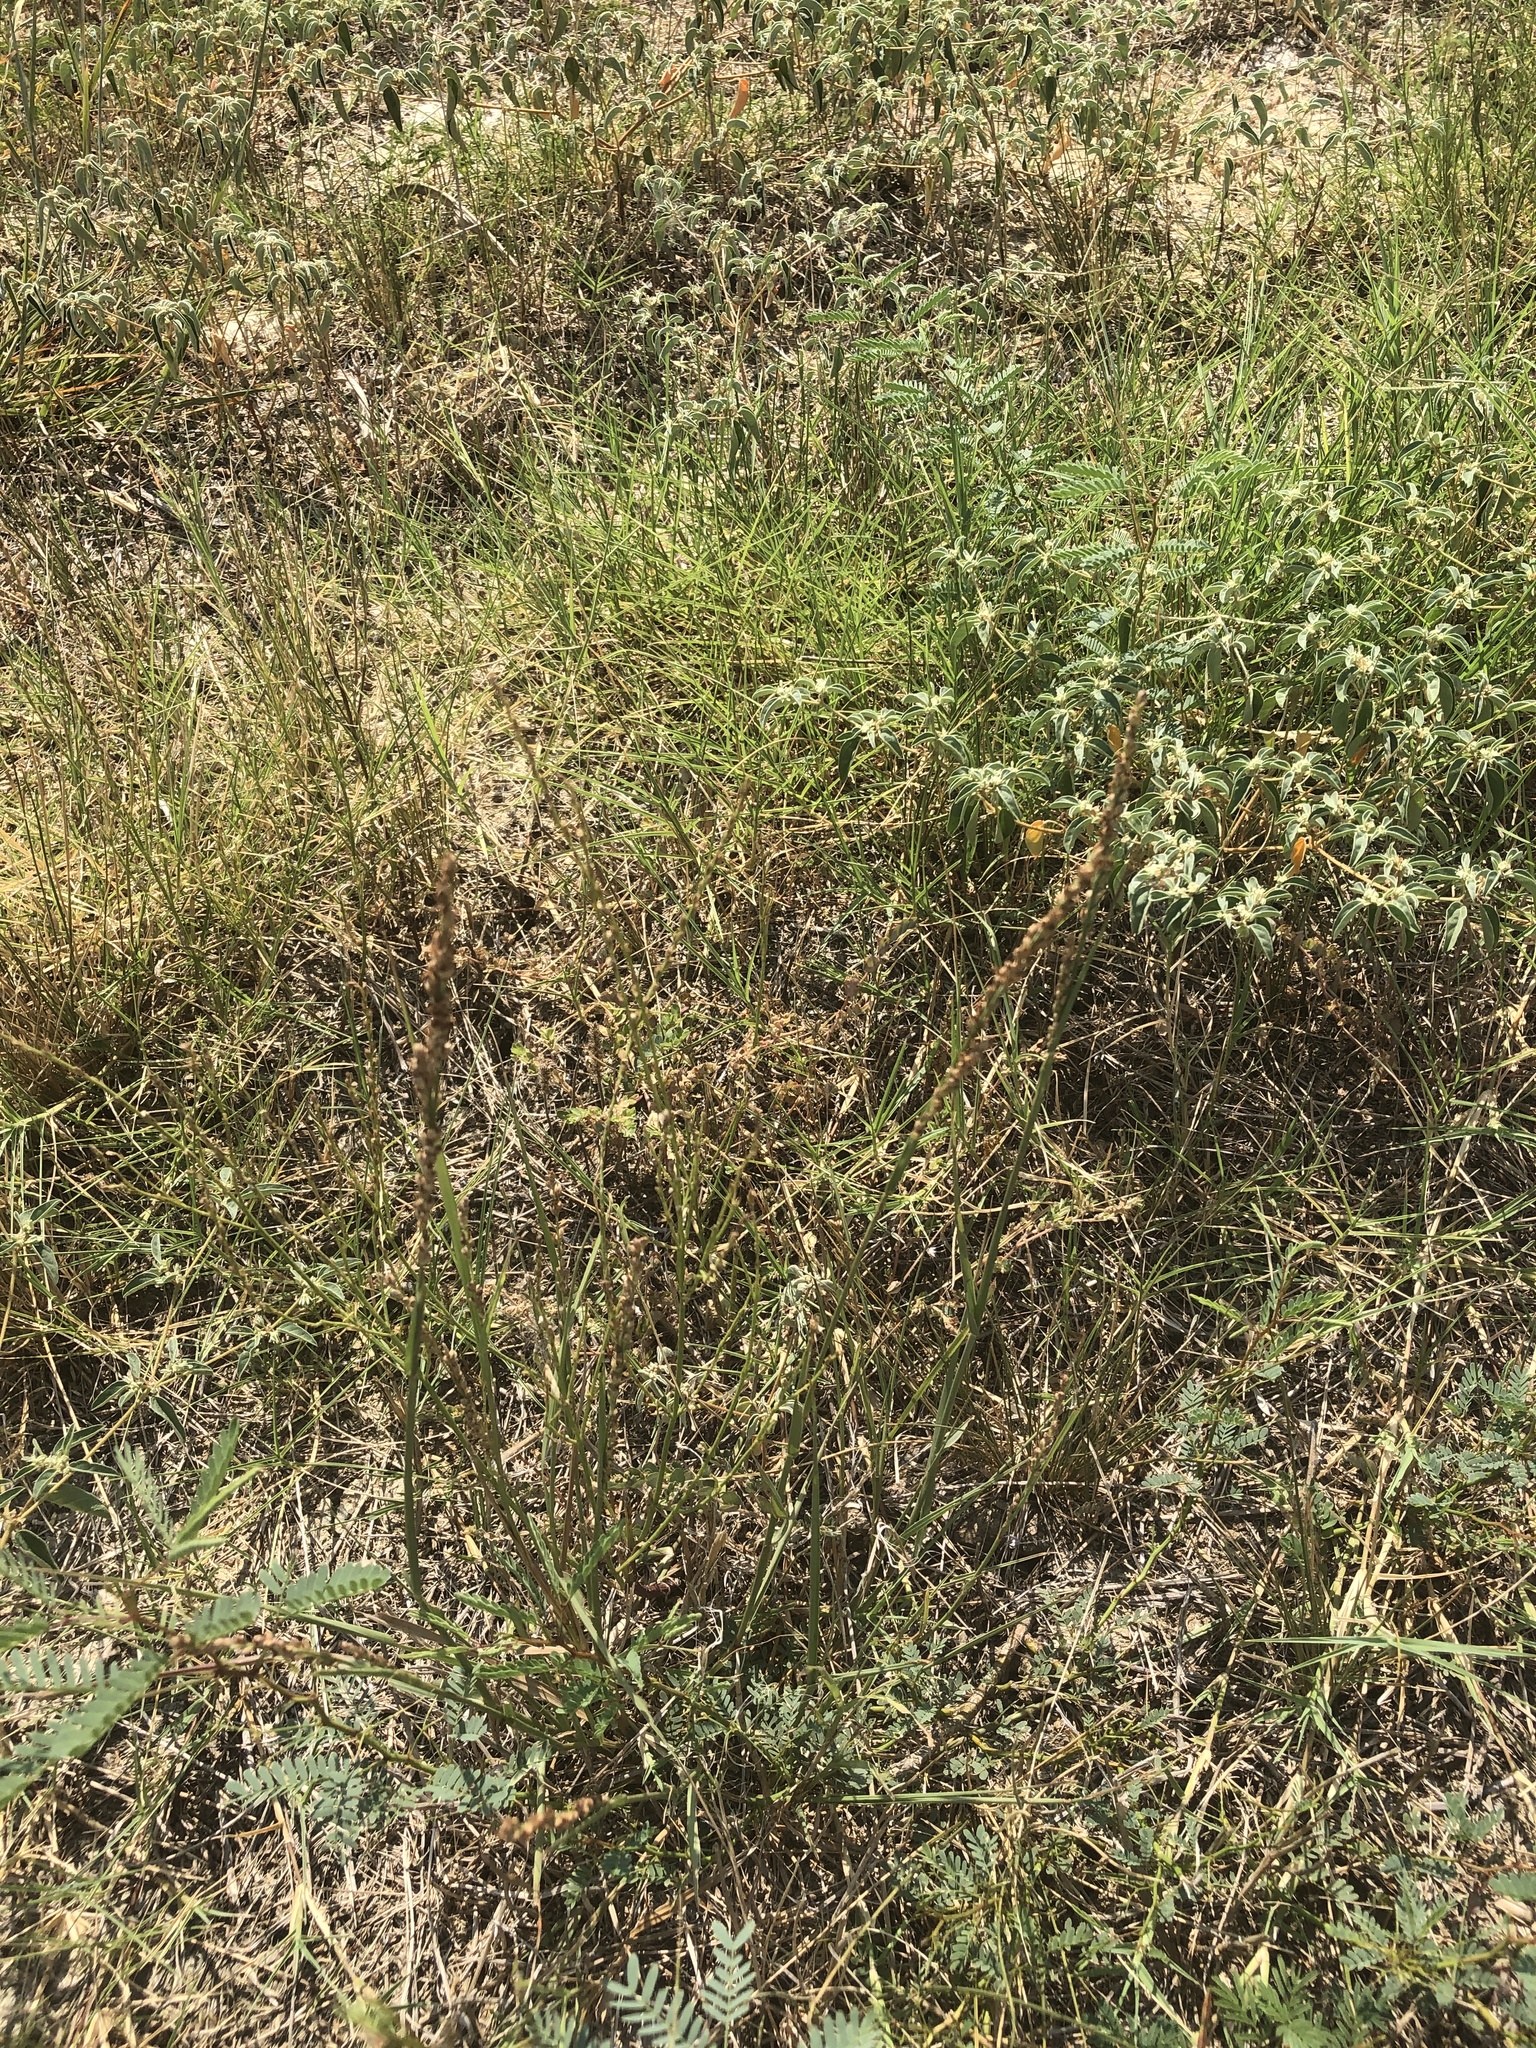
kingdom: Plantae
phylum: Tracheophyta
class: Liliopsida
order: Poales
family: Poaceae
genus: Hopia
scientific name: Hopia obtusa
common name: Vine-mesquite
